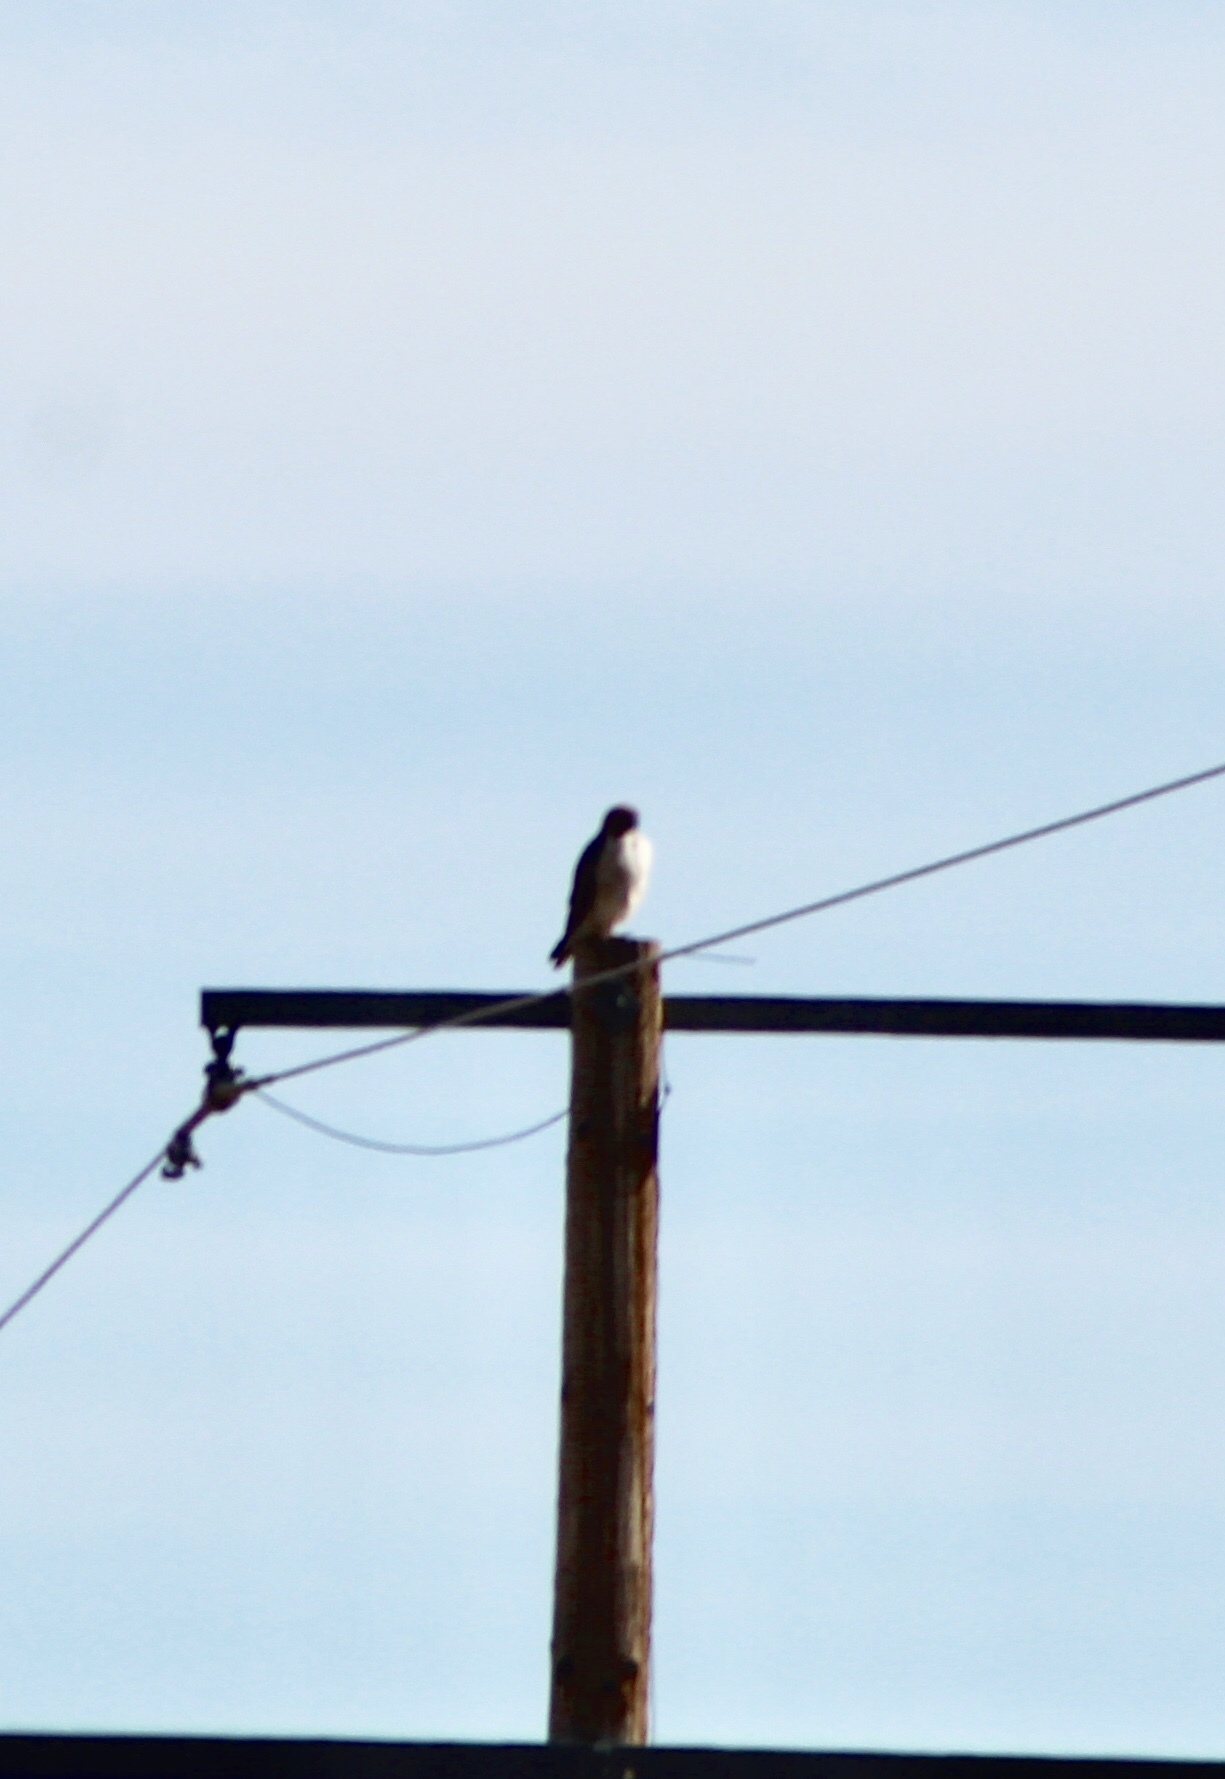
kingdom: Animalia
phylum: Chordata
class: Aves
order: Accipitriformes
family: Accipitridae
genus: Buteo
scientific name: Buteo jamaicensis
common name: Red-tailed hawk
